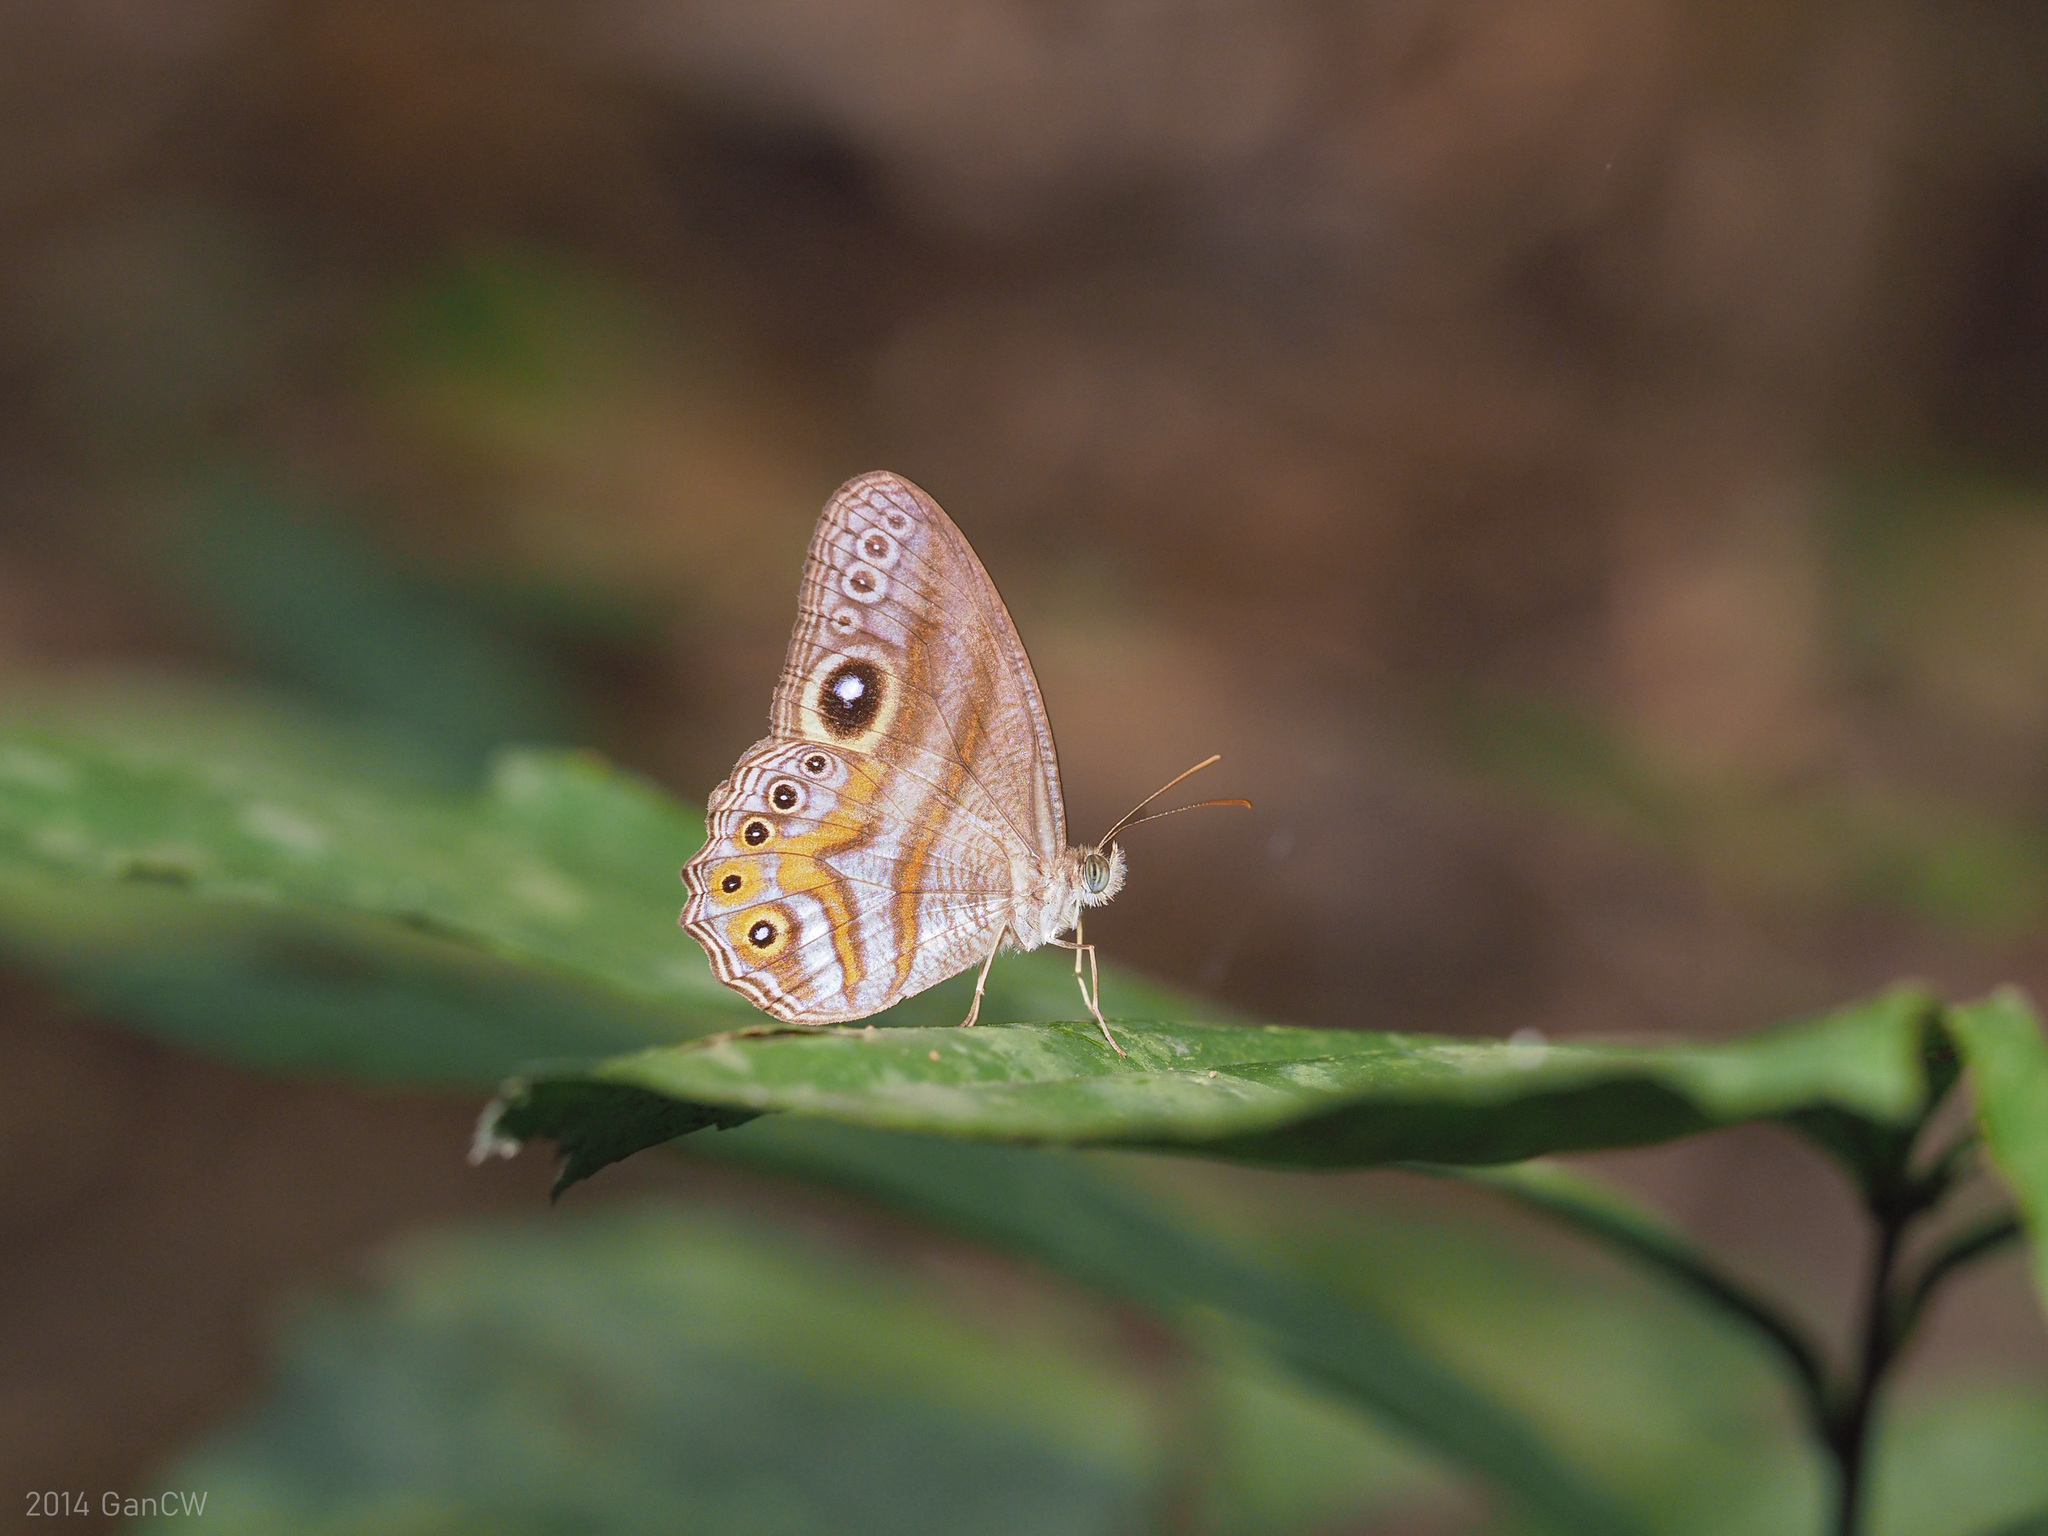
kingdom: Animalia
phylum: Arthropoda
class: Insecta
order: Lepidoptera
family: Nymphalidae
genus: Erites
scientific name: Erites argentina
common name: Eyed cyclops
